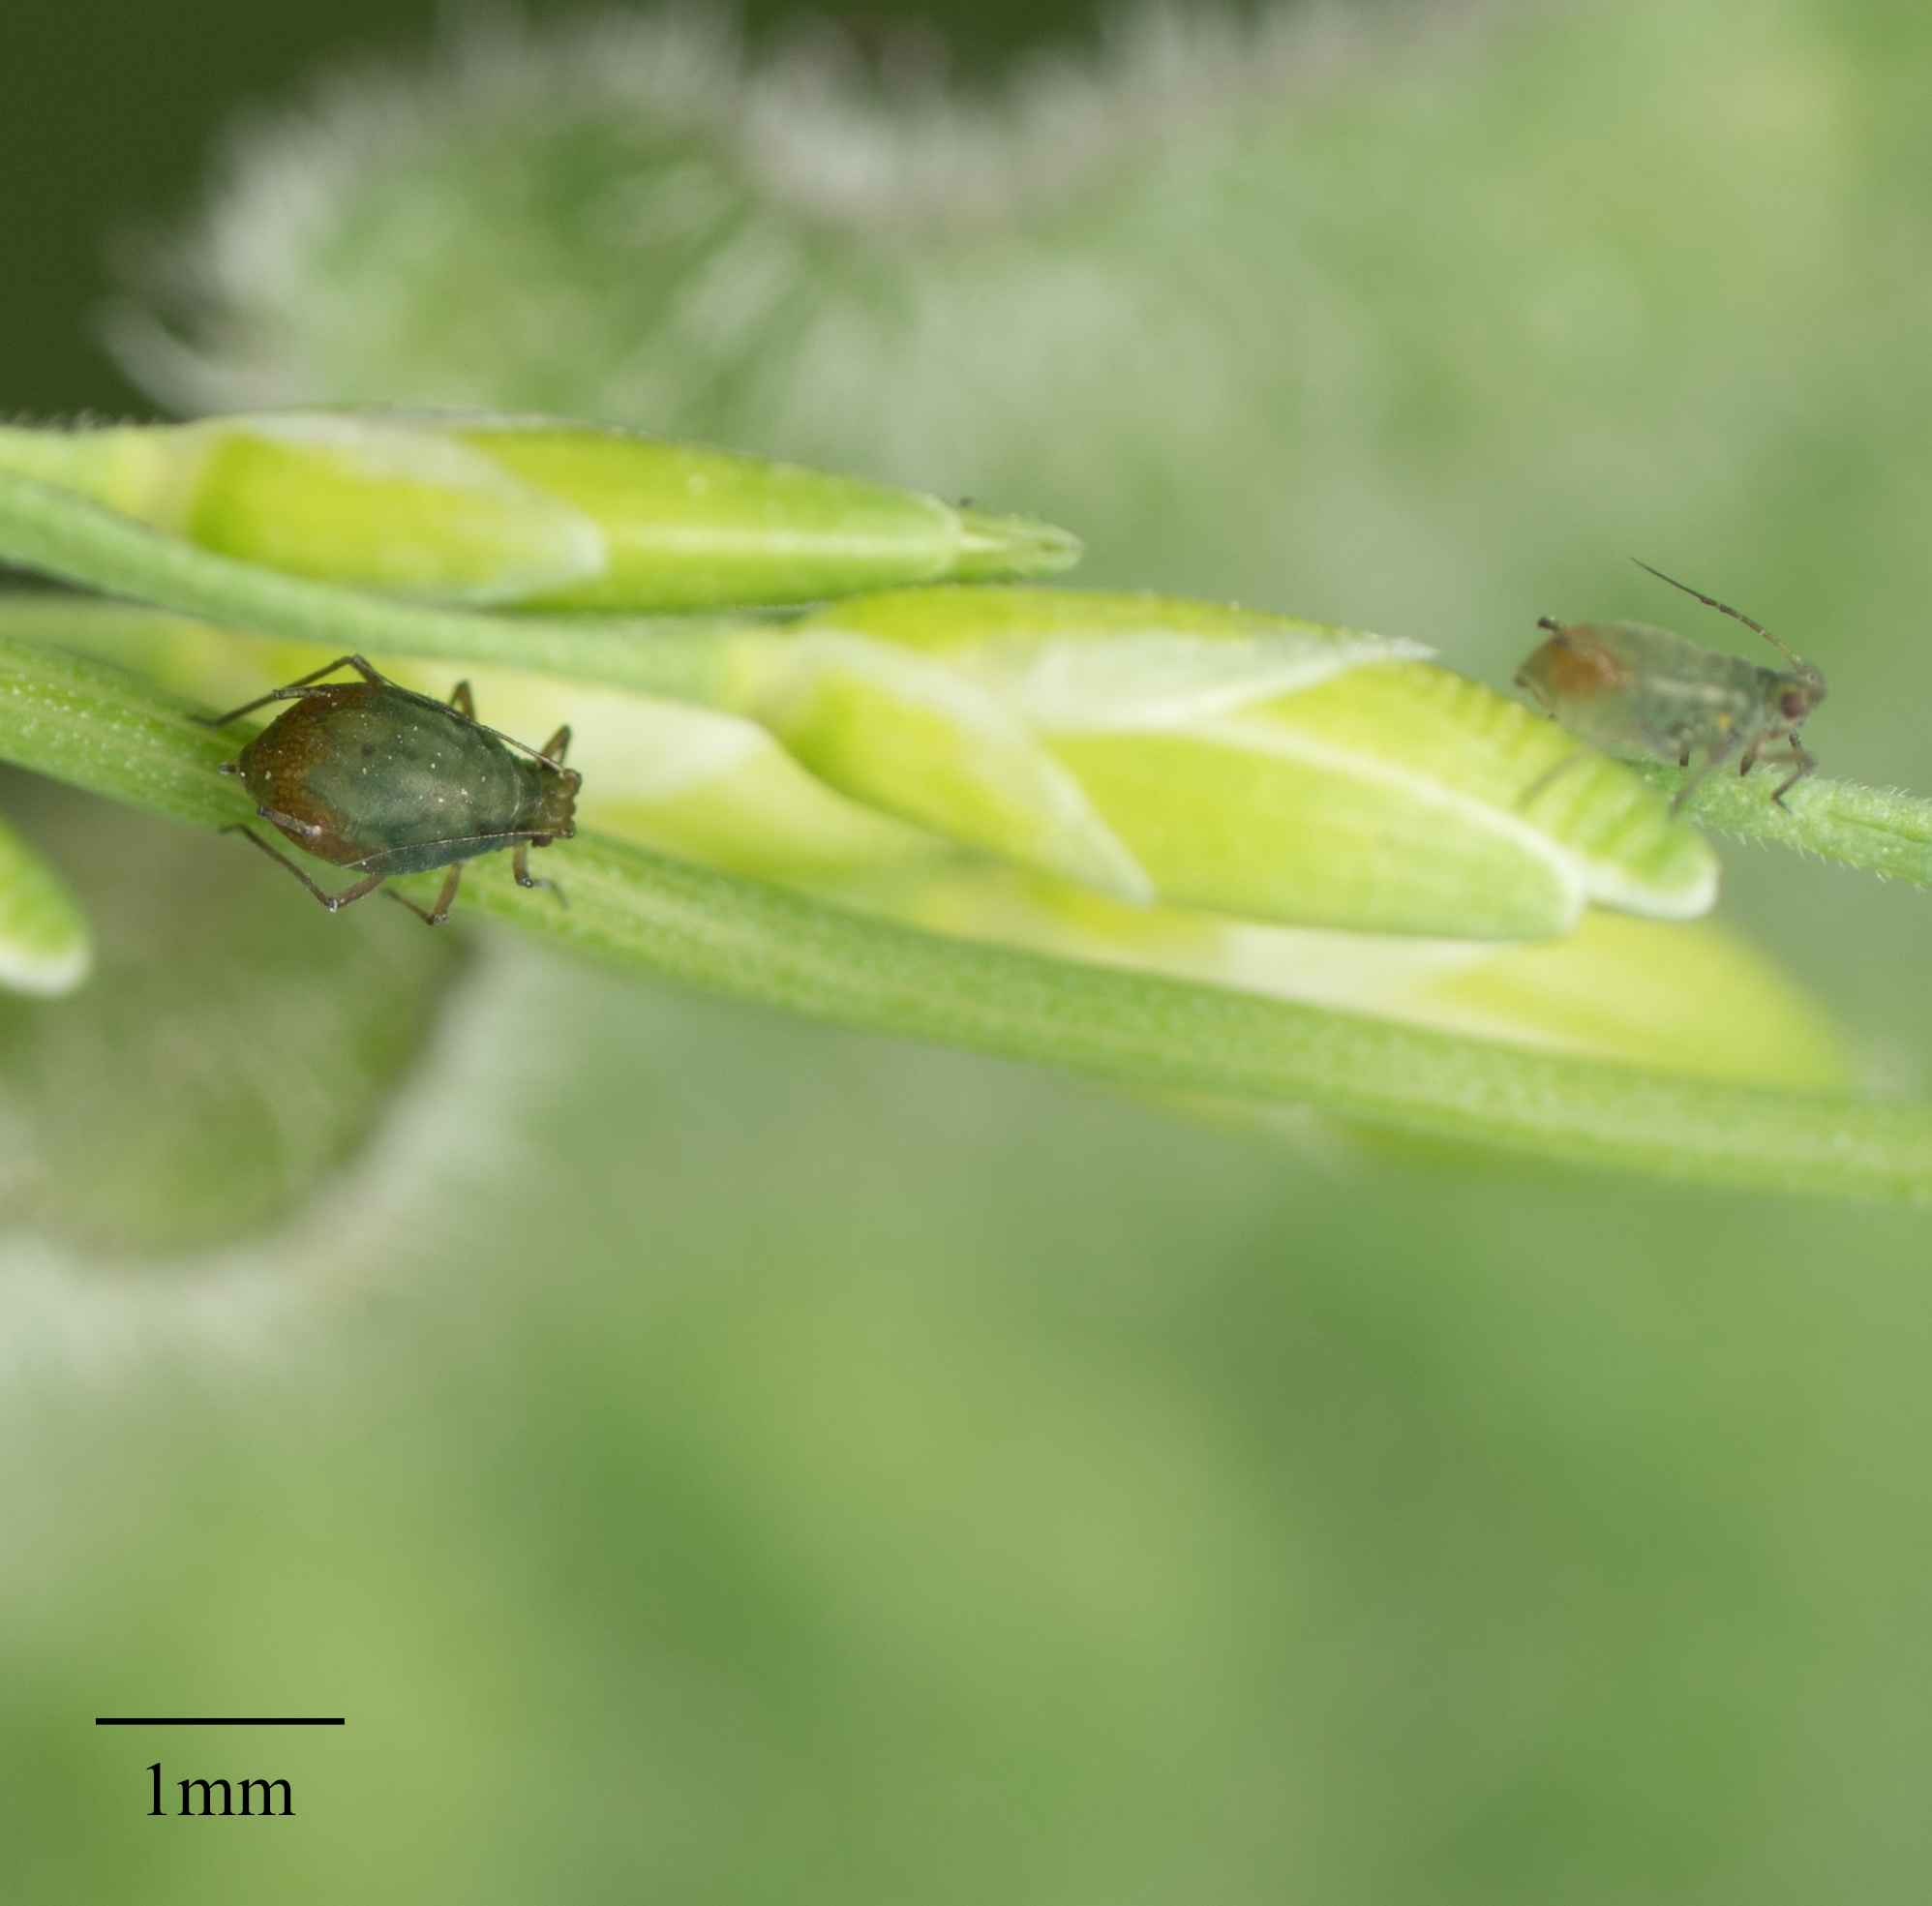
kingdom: Animalia
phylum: Arthropoda
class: Insecta
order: Hemiptera
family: Aphididae
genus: Rhopalosiphum
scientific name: Rhopalosiphum padi
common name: Oat-birdcherry aphid
